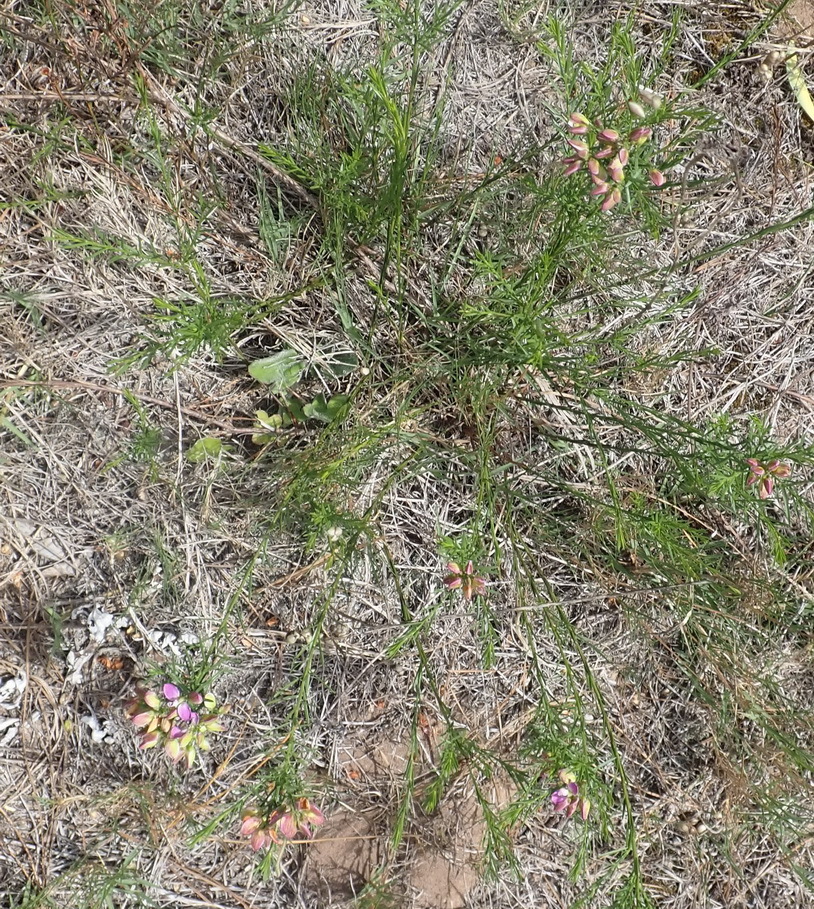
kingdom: Plantae
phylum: Tracheophyta
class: Magnoliopsida
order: Fabales
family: Polygalaceae
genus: Polygala
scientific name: Polygala umbellata
